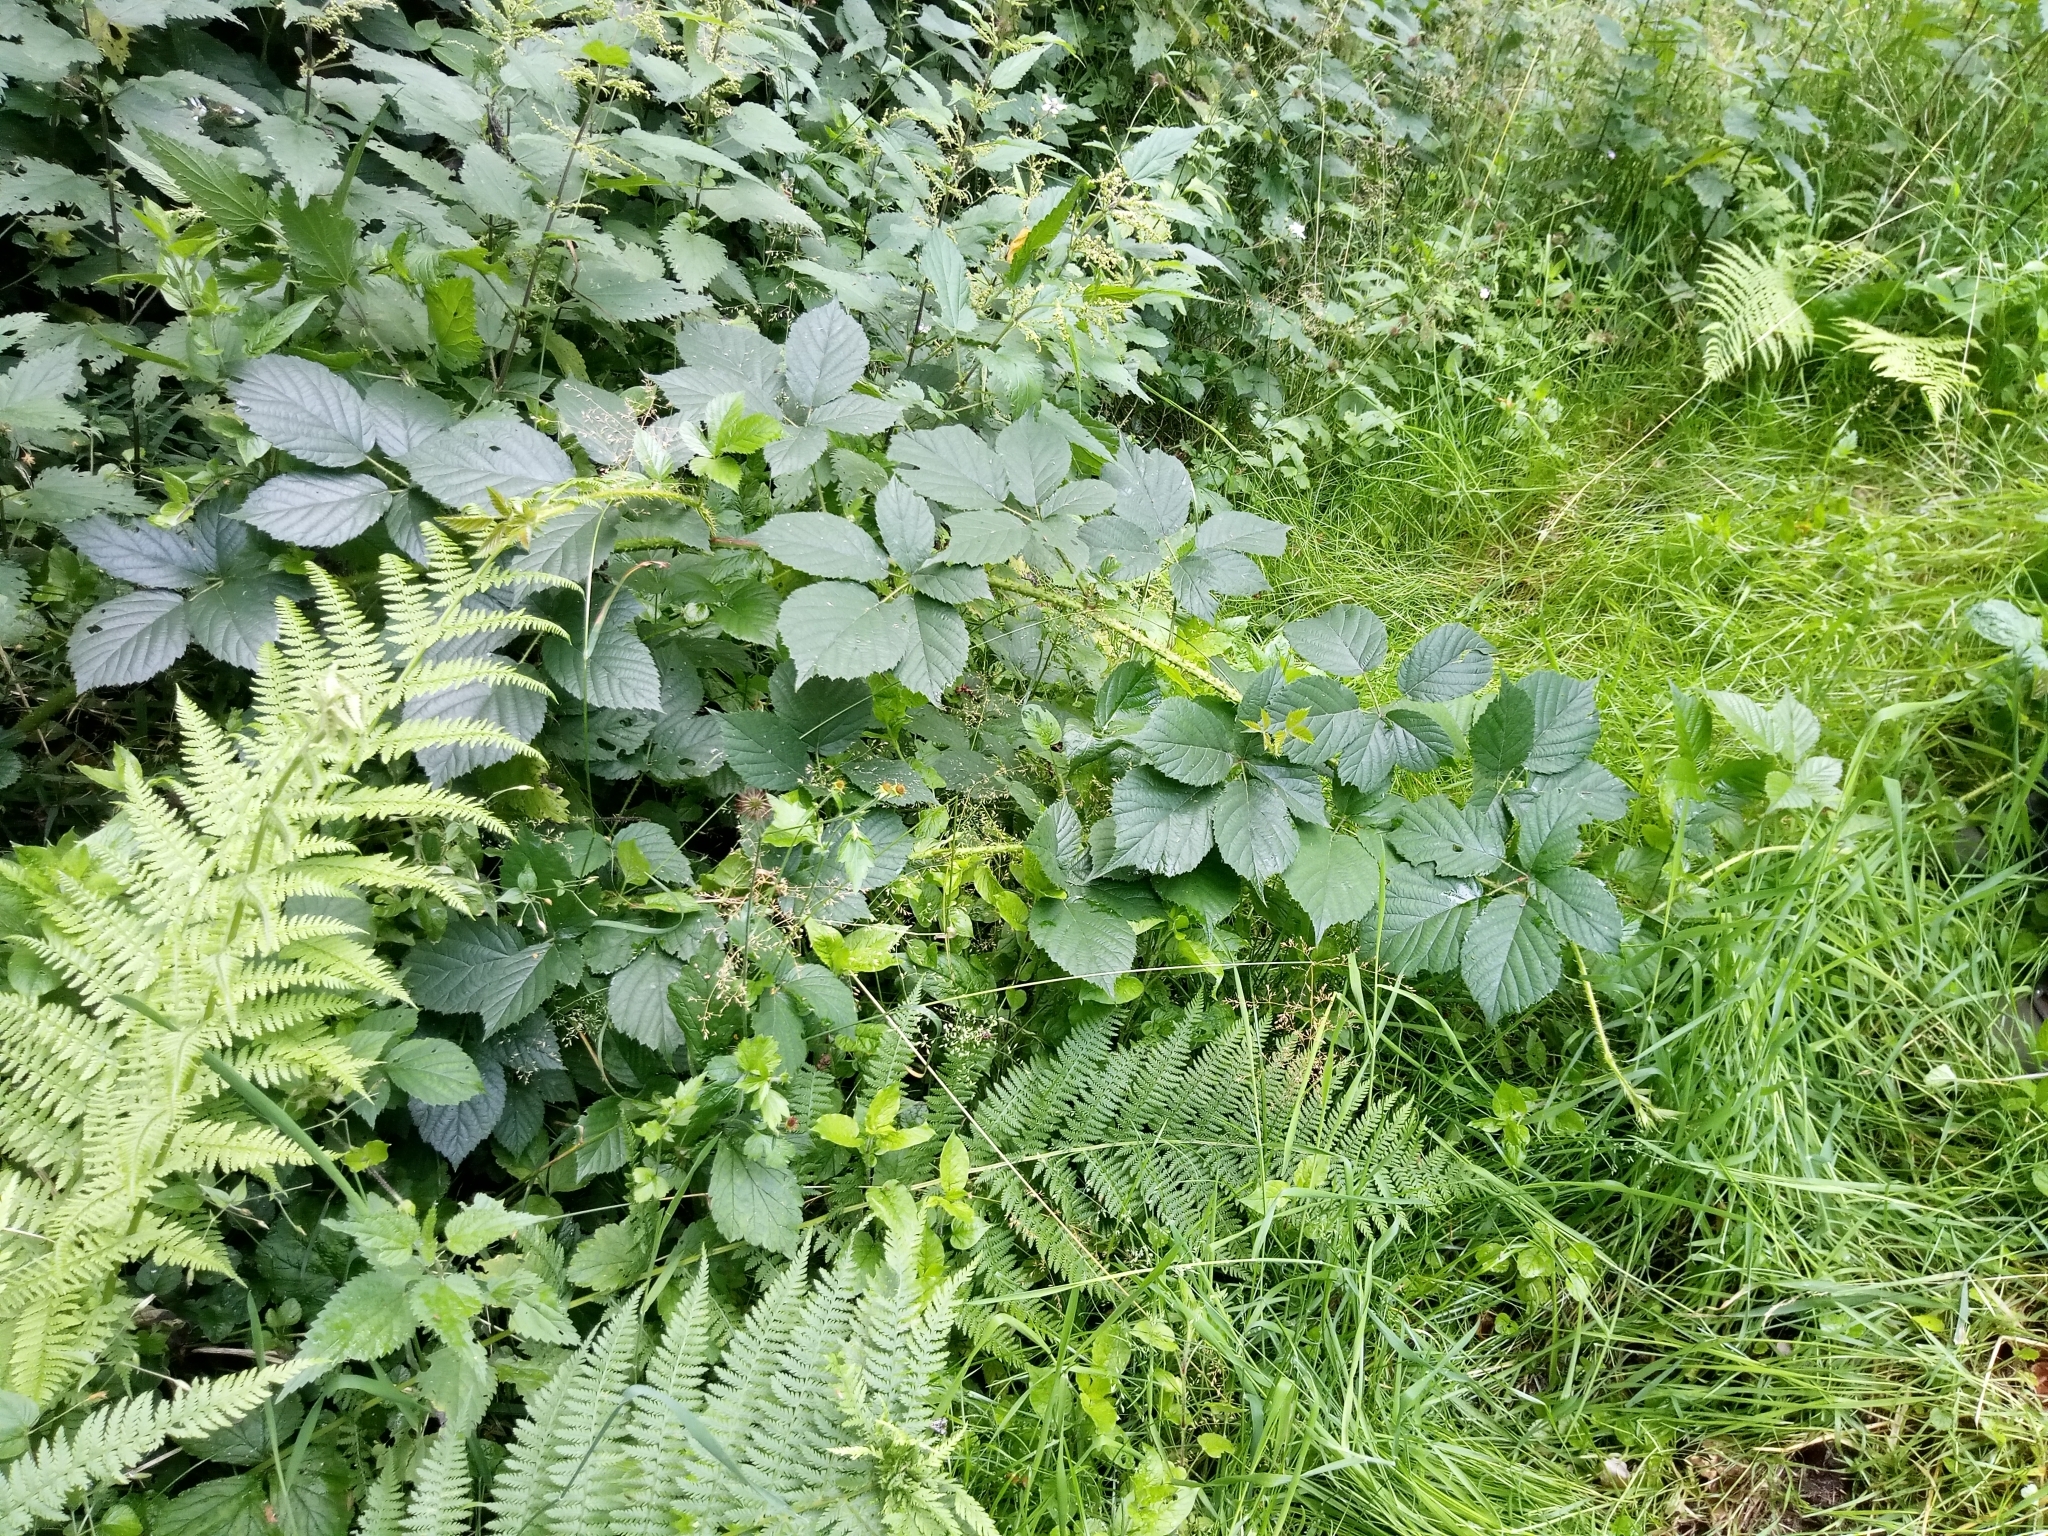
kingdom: Plantae
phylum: Tracheophyta
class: Magnoliopsida
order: Rosales
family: Rosaceae
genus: Rubus
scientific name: Rubus koehleri
